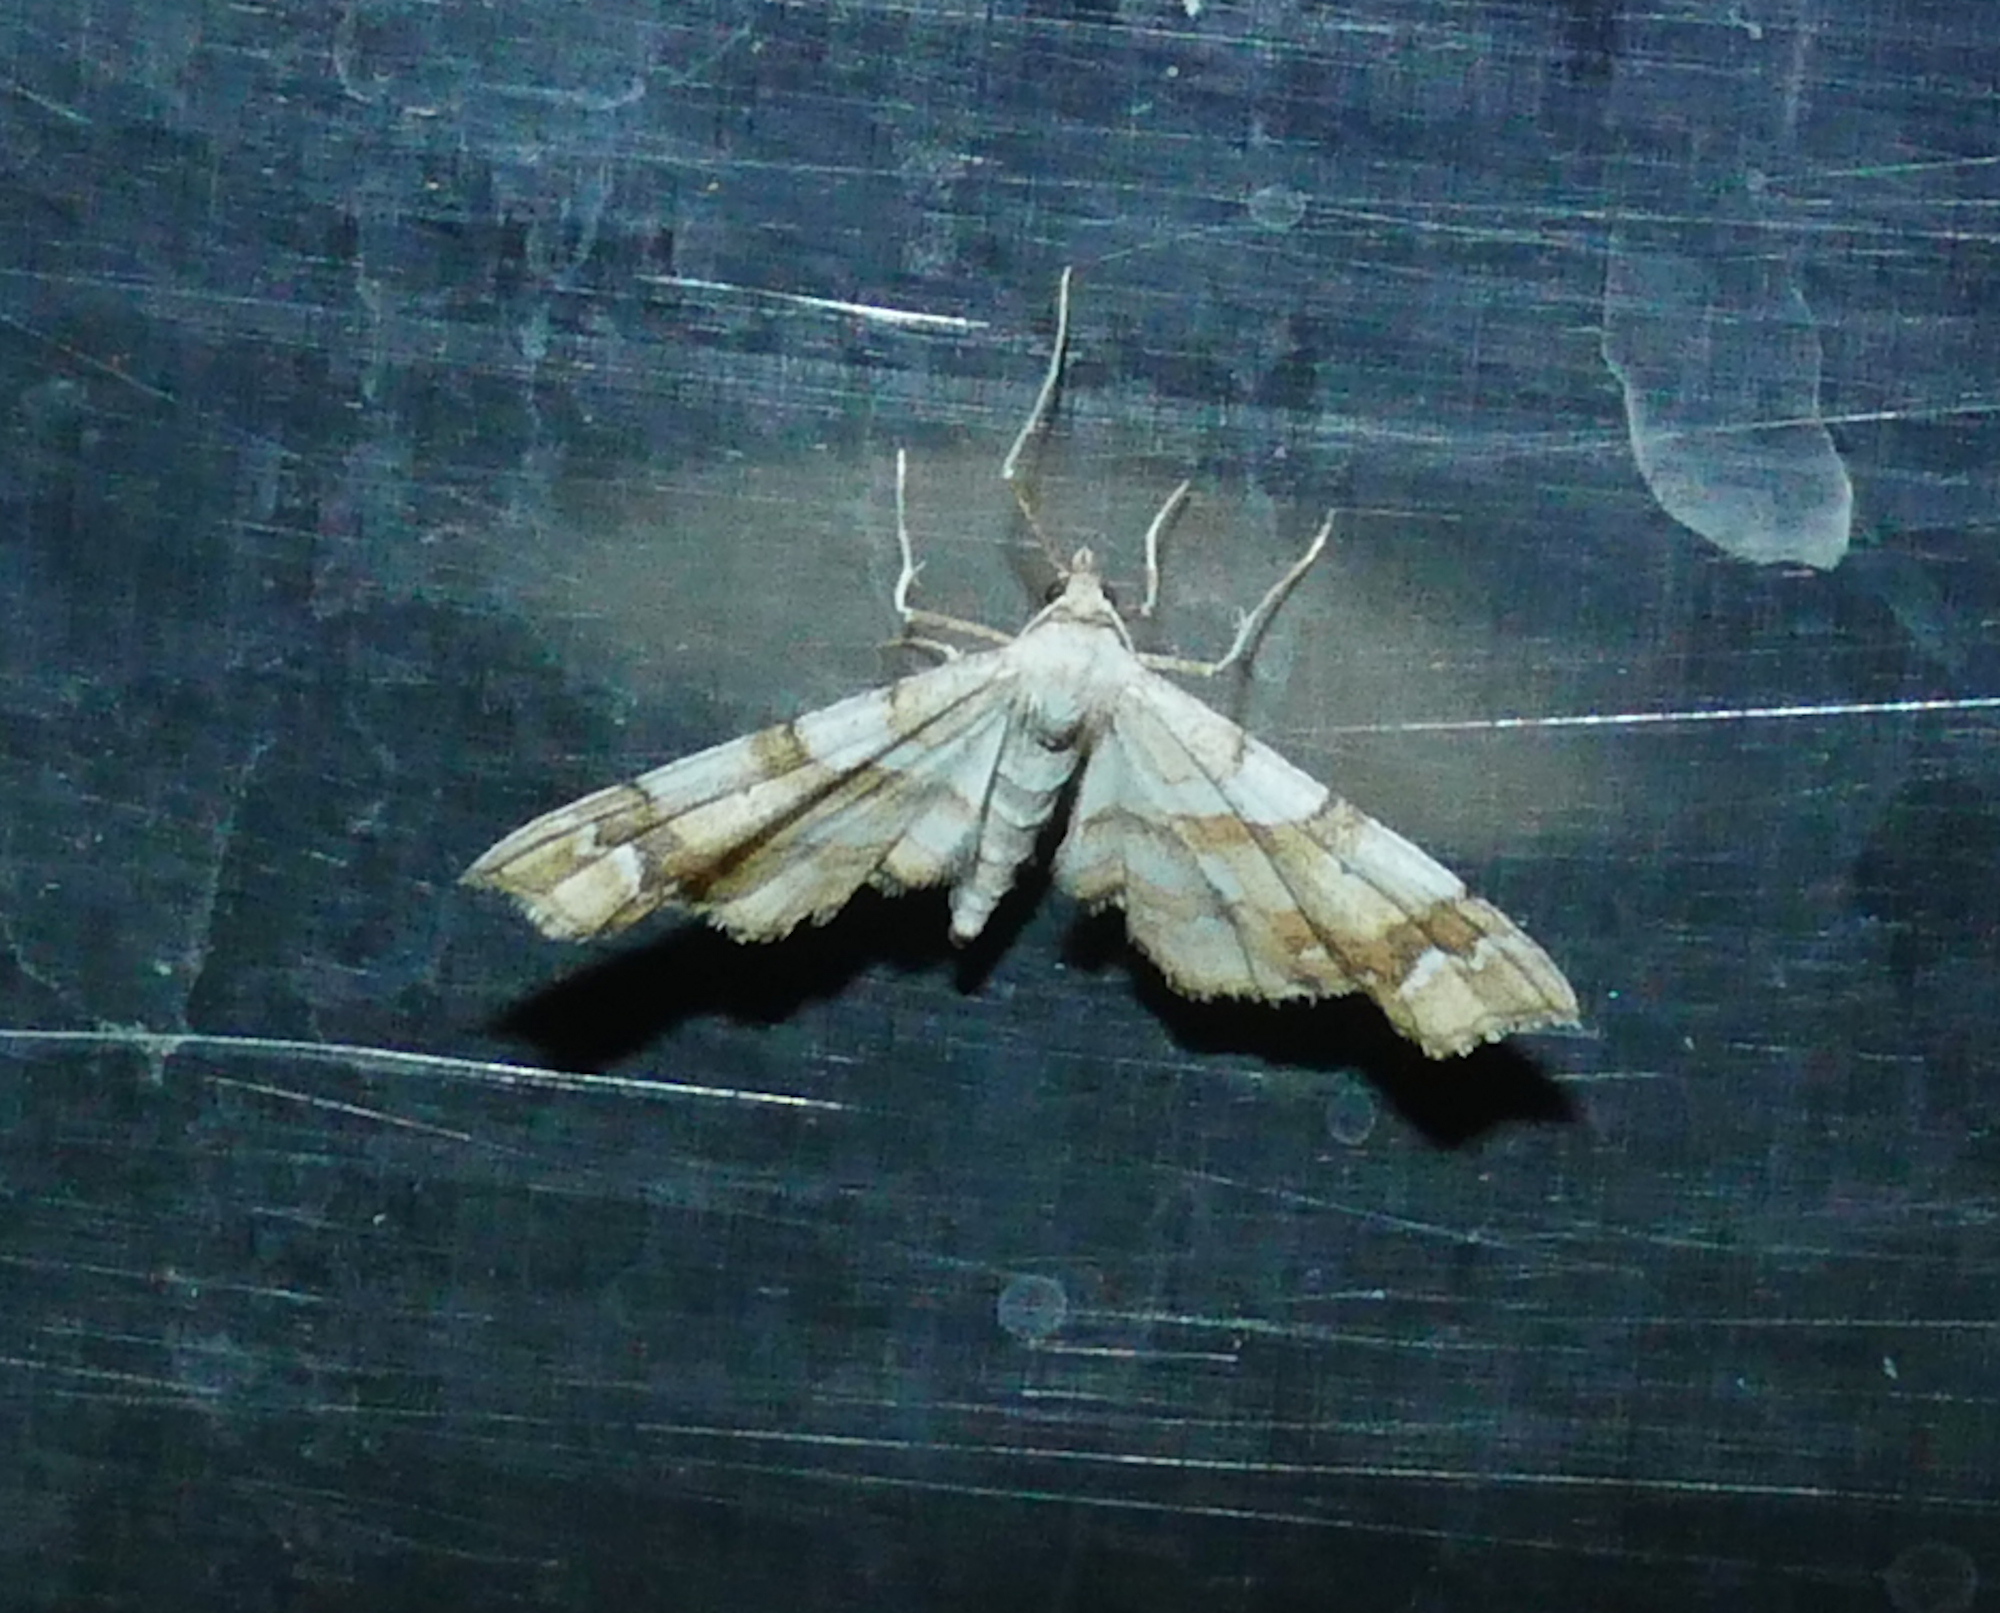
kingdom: Animalia
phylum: Arthropoda
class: Insecta
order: Lepidoptera
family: Geometridae
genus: Odontoptila
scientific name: Odontoptila obrimo
